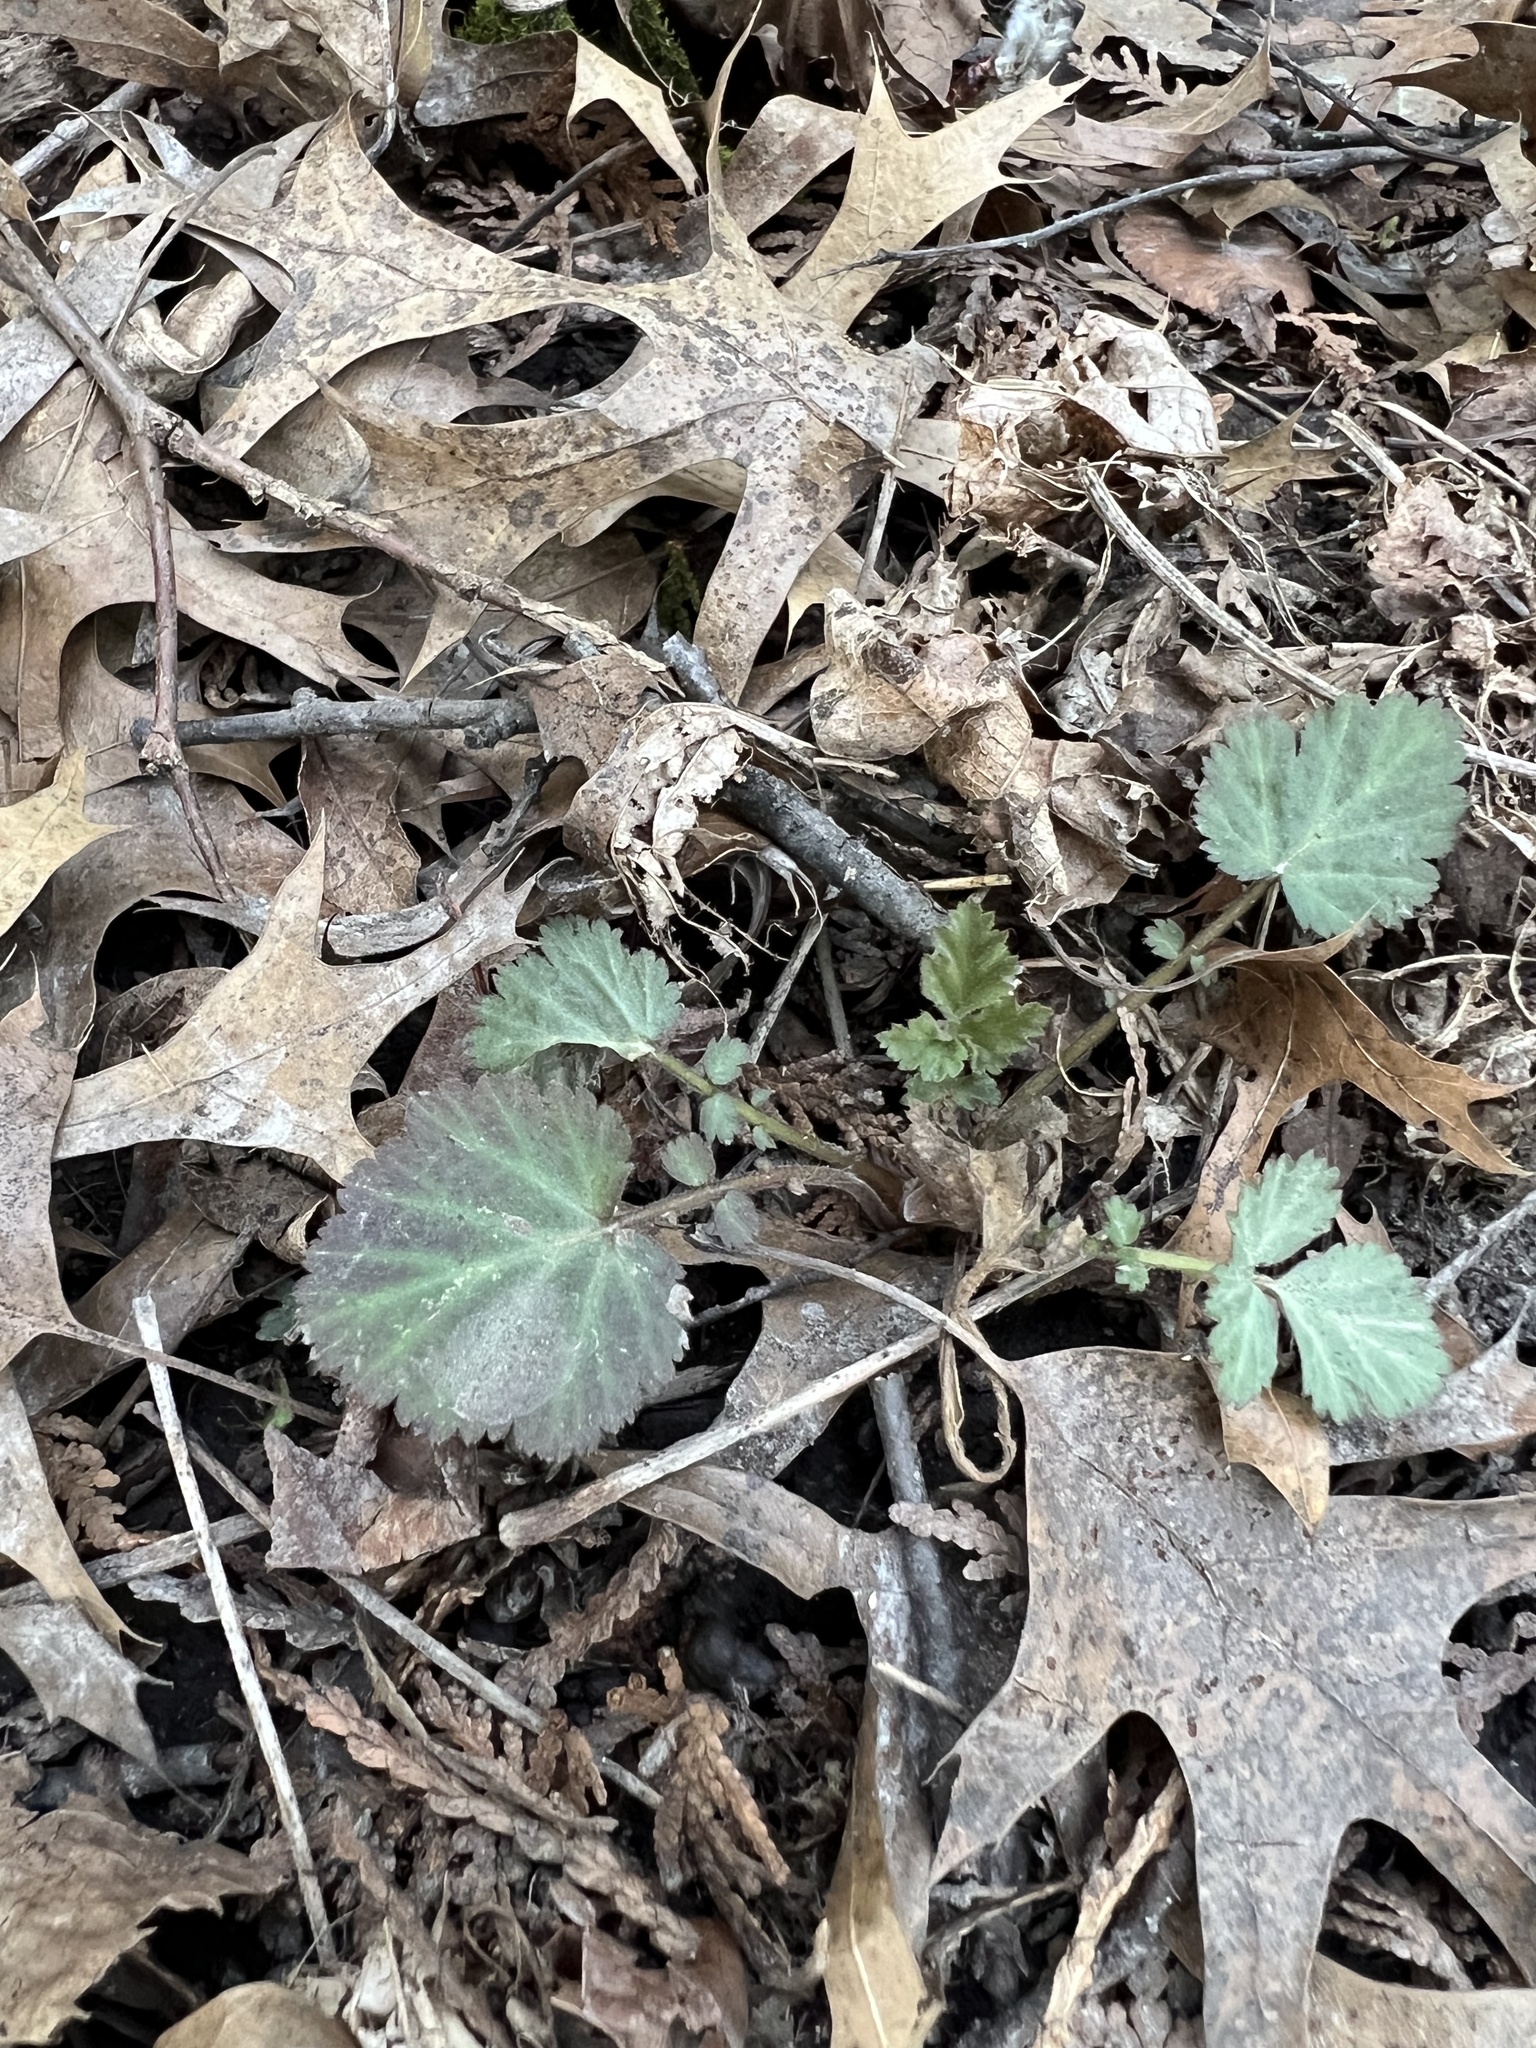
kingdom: Plantae
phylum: Tracheophyta
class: Magnoliopsida
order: Rosales
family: Rosaceae
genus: Geum
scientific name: Geum canadense
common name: White avens
